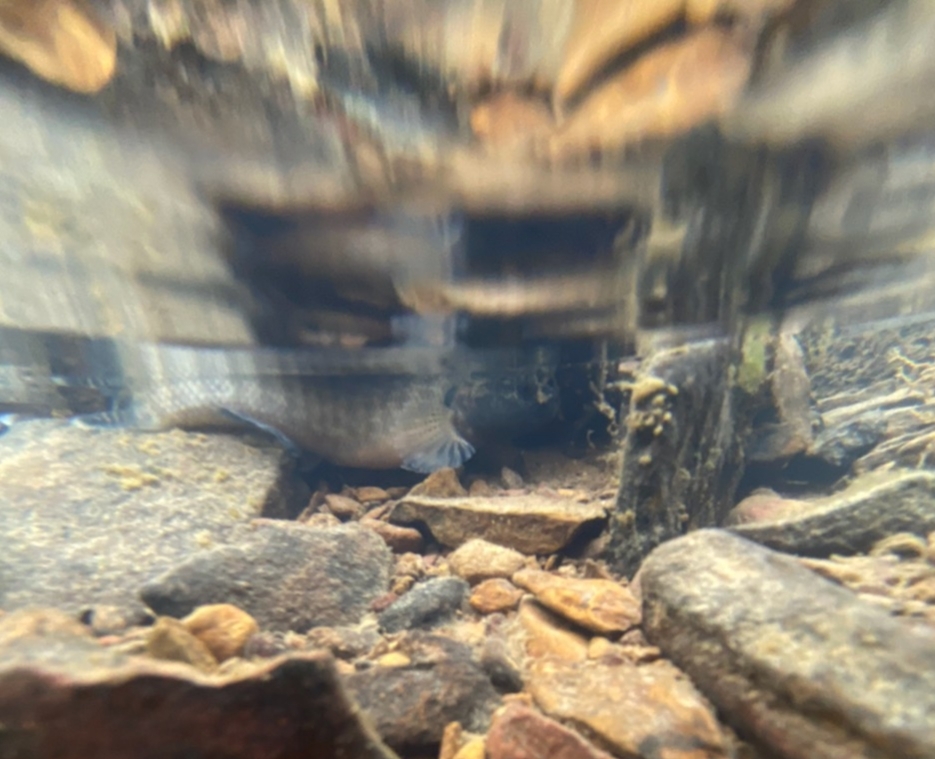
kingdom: Animalia
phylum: Chordata
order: Perciformes
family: Percidae
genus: Etheostoma
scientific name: Etheostoma squamiceps
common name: Spottail darter
